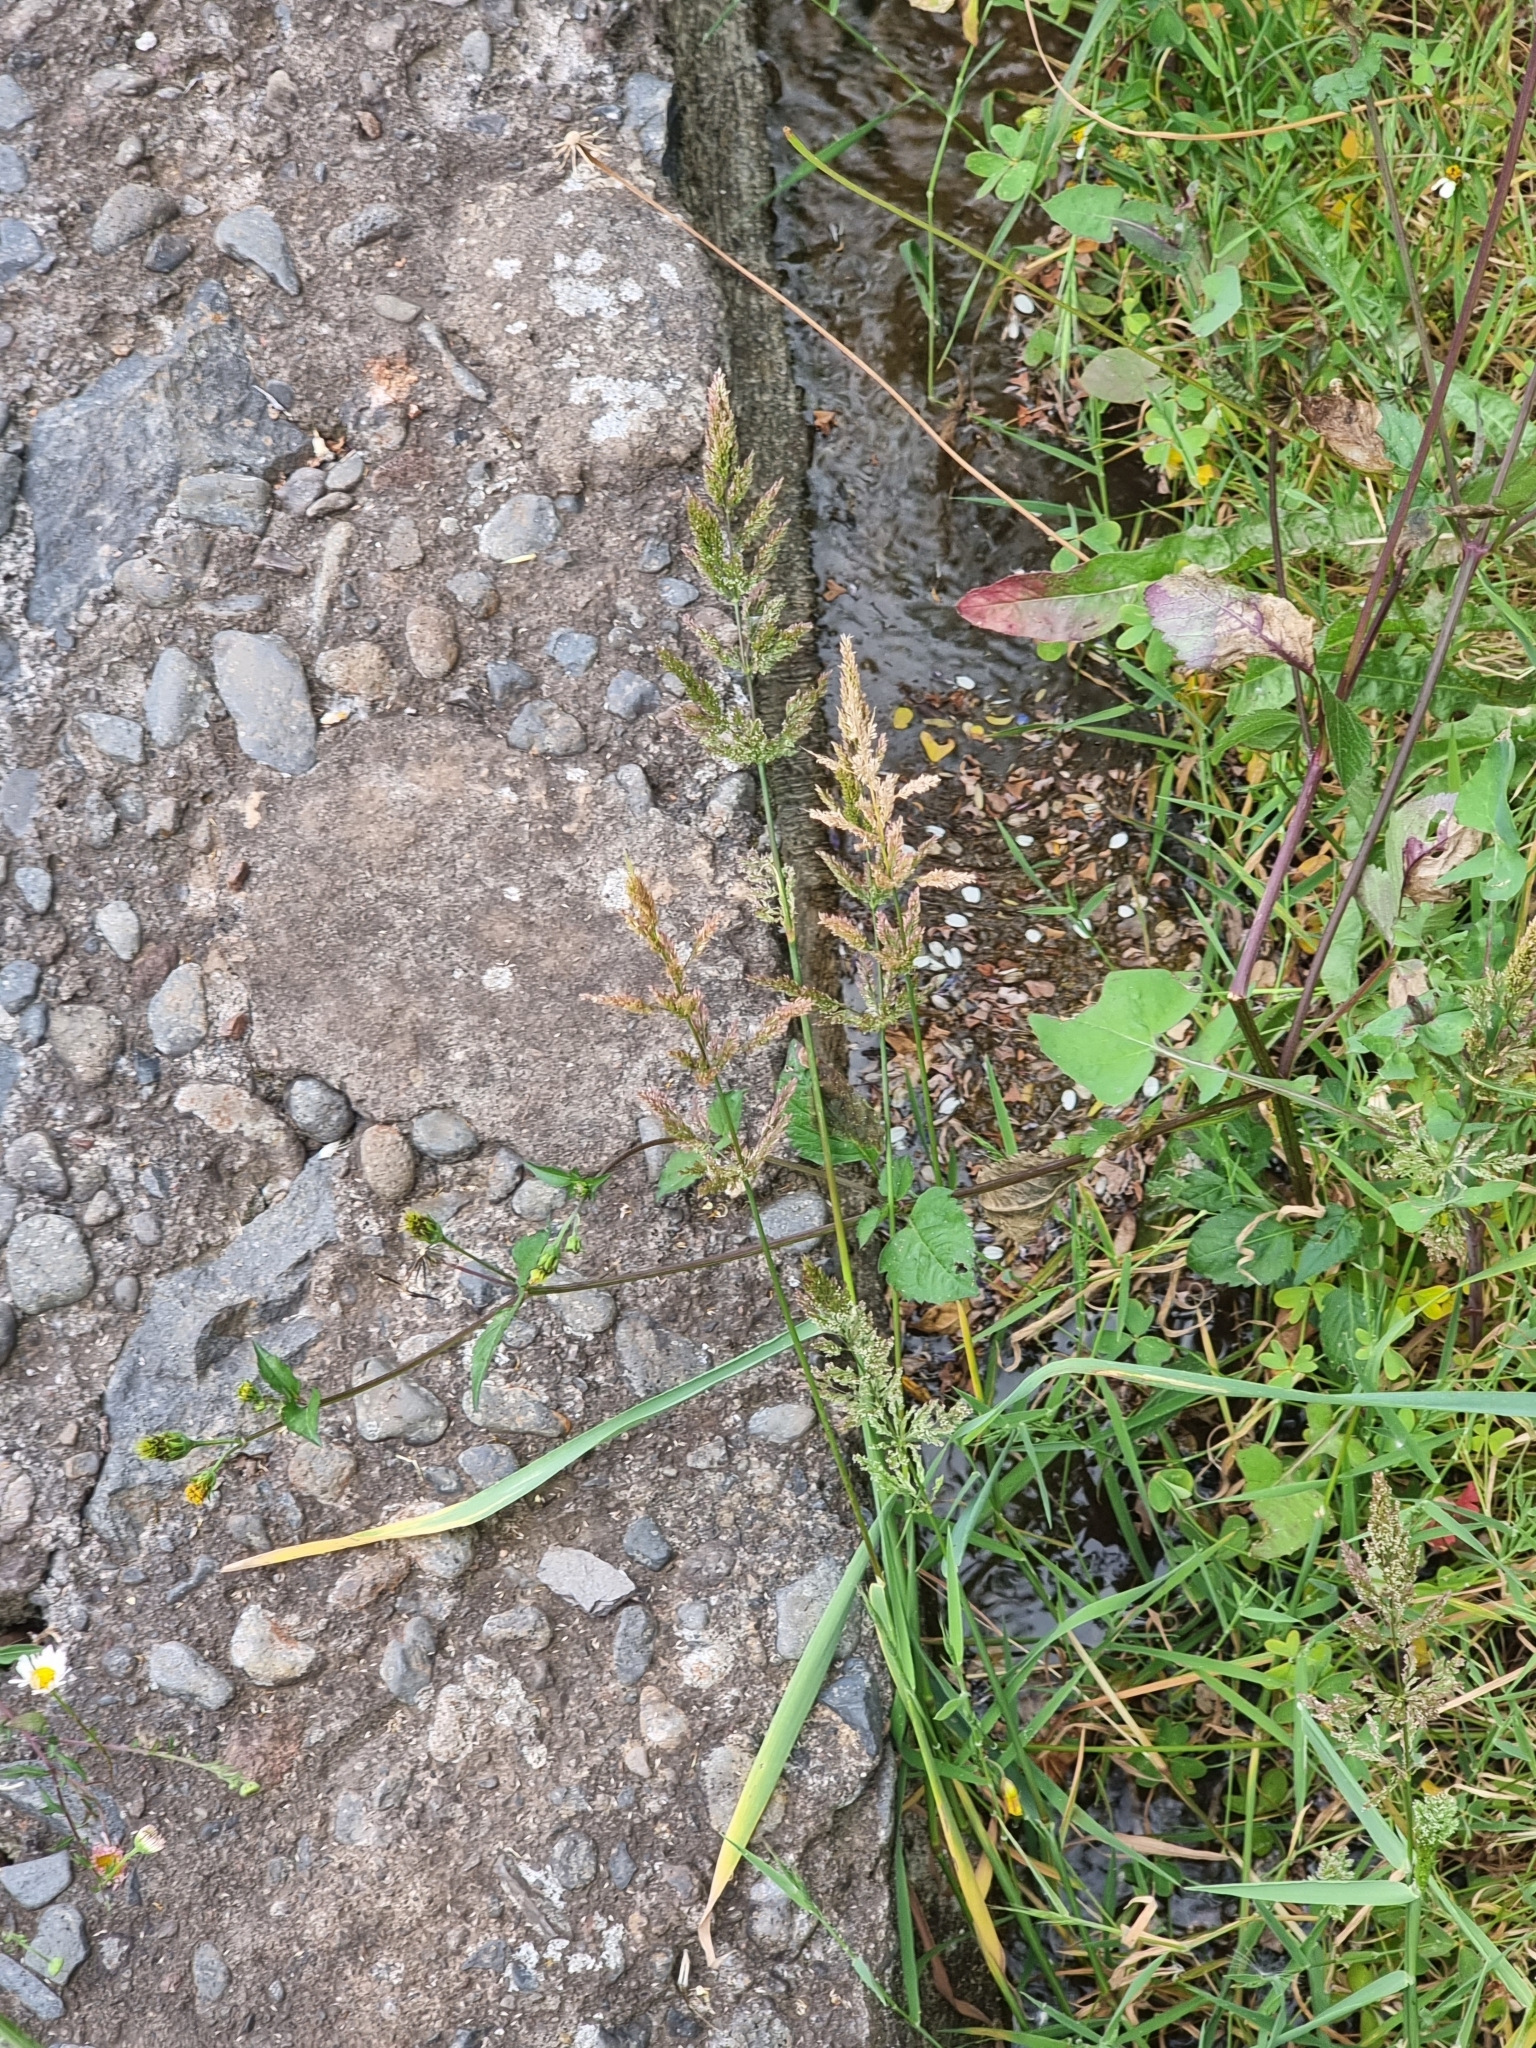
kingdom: Plantae
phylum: Tracheophyta
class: Liliopsida
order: Poales
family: Poaceae
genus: Polypogon
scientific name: Polypogon viridis
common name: Water bent
